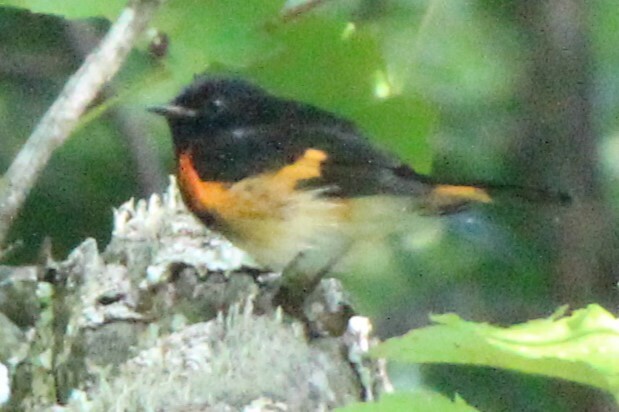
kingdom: Animalia
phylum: Chordata
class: Aves
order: Passeriformes
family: Parulidae
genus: Setophaga
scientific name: Setophaga ruticilla
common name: American redstart
